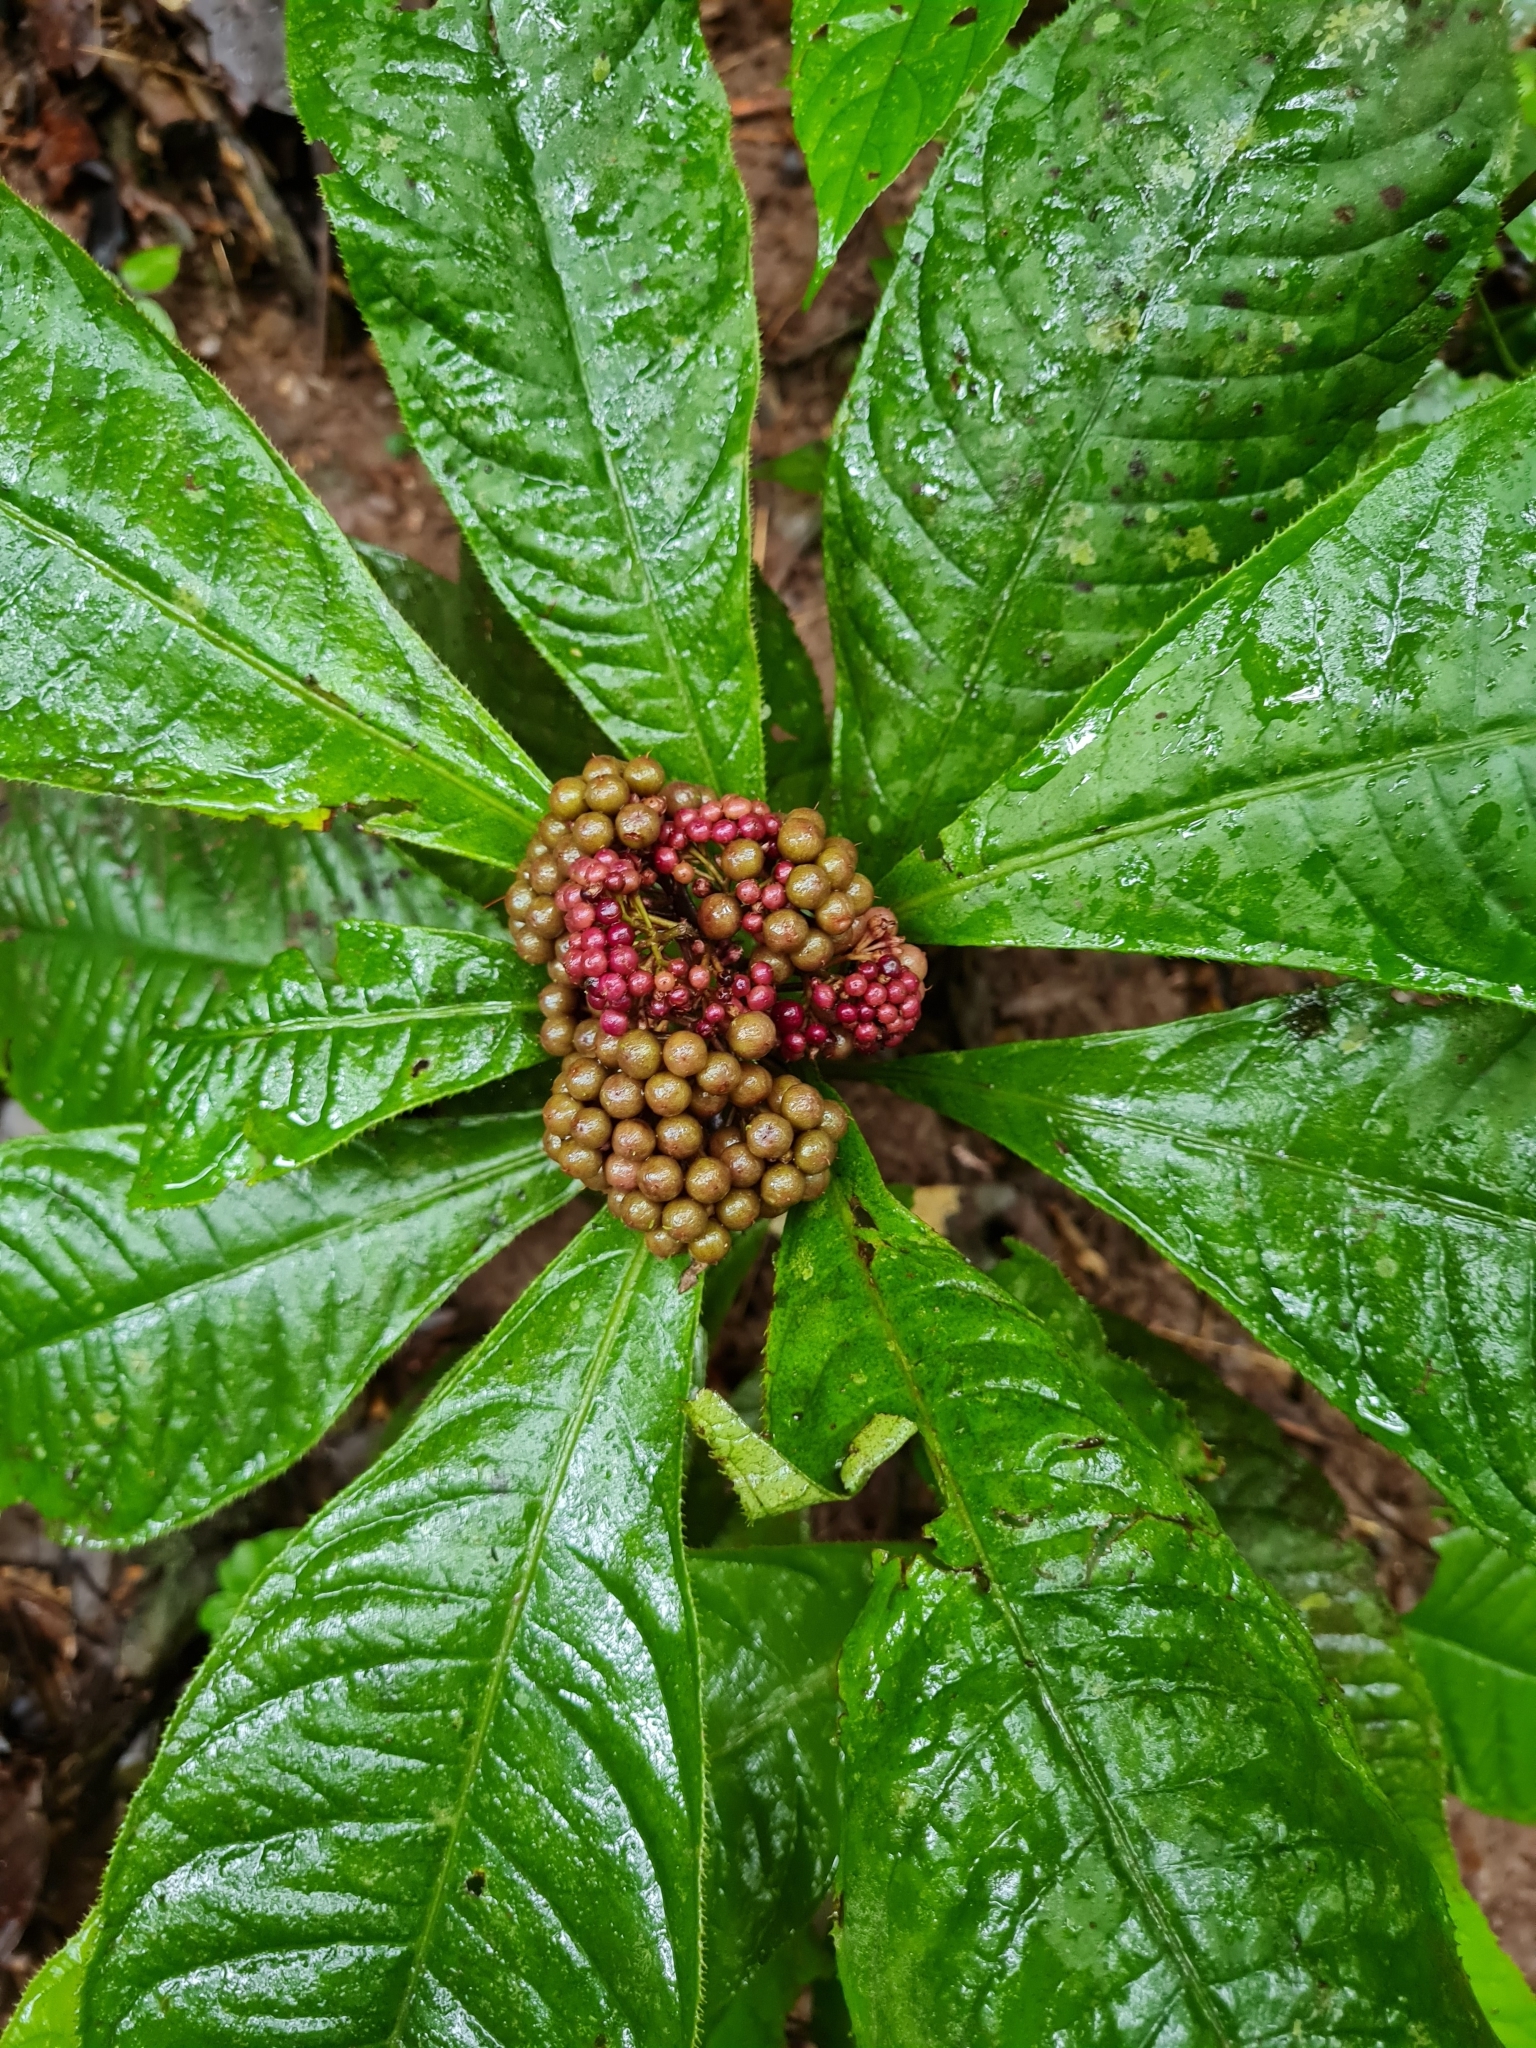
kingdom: Plantae
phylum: Tracheophyta
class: Magnoliopsida
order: Ericales
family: Primulaceae
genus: Ardisia
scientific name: Ardisia pellucida
